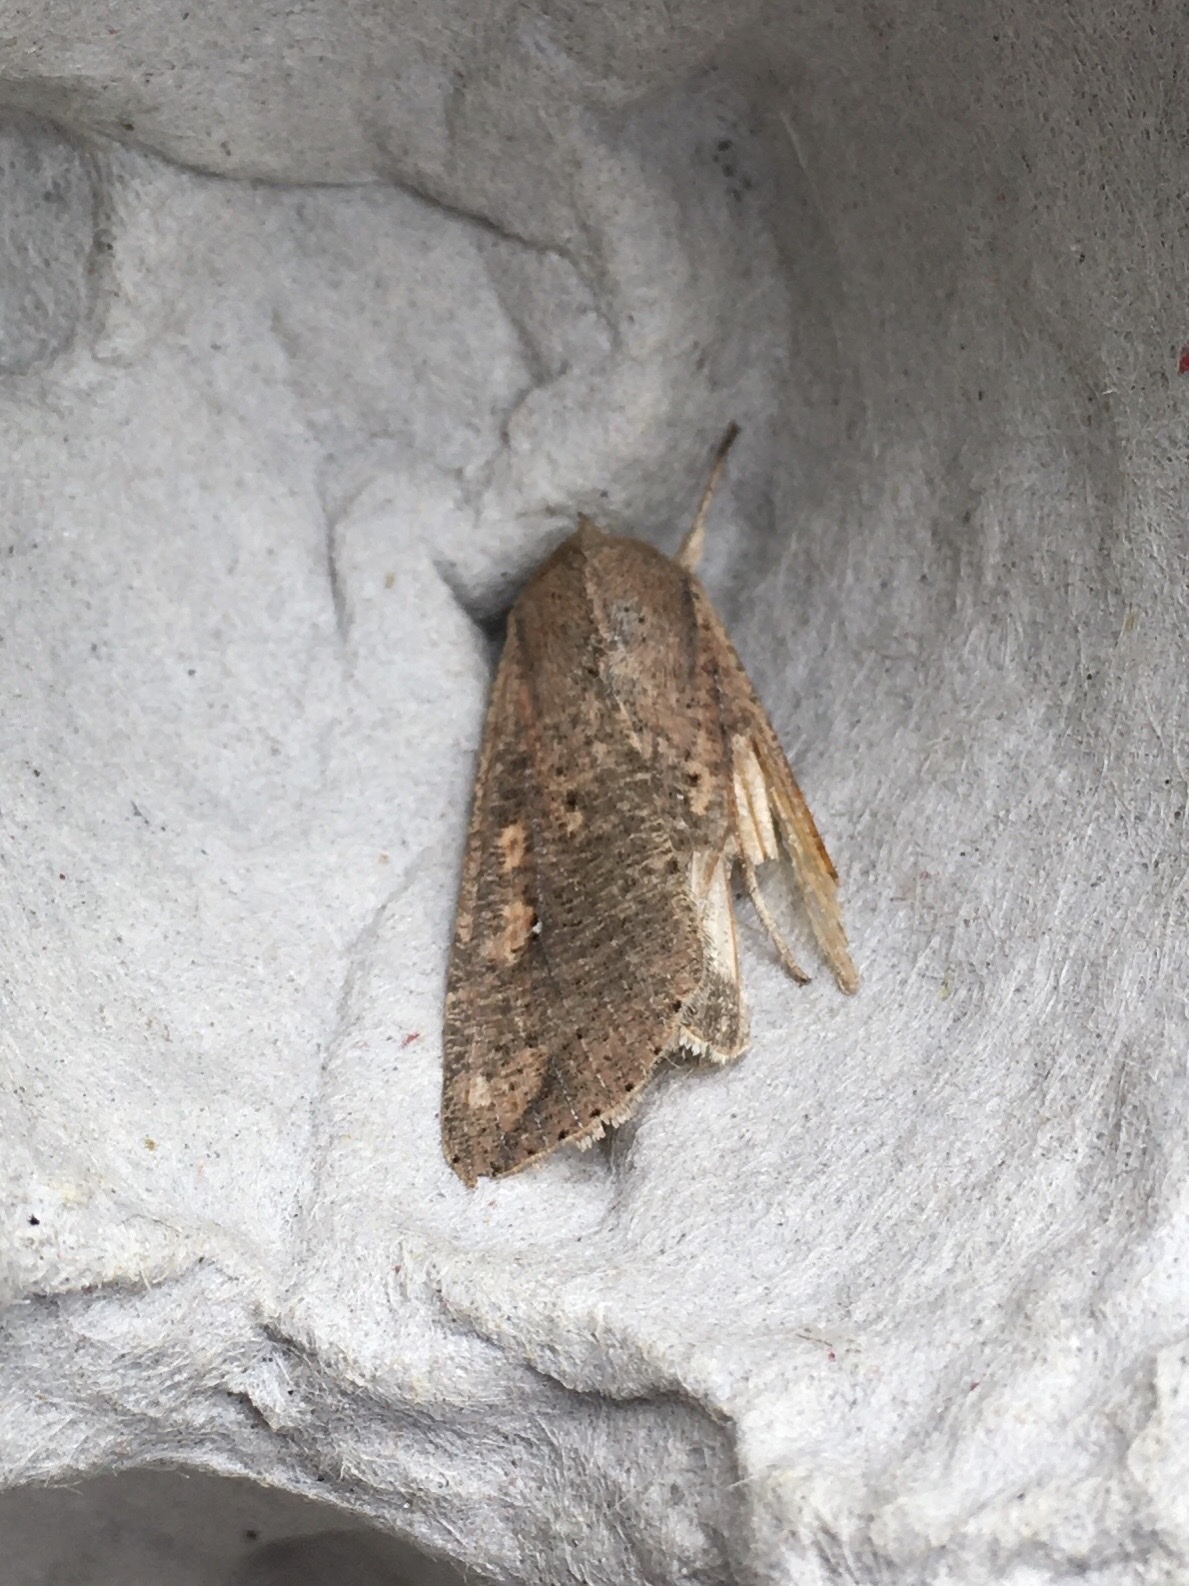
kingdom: Animalia
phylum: Arthropoda
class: Insecta
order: Lepidoptera
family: Noctuidae
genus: Mythimna
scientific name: Mythimna unipuncta
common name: White-speck
